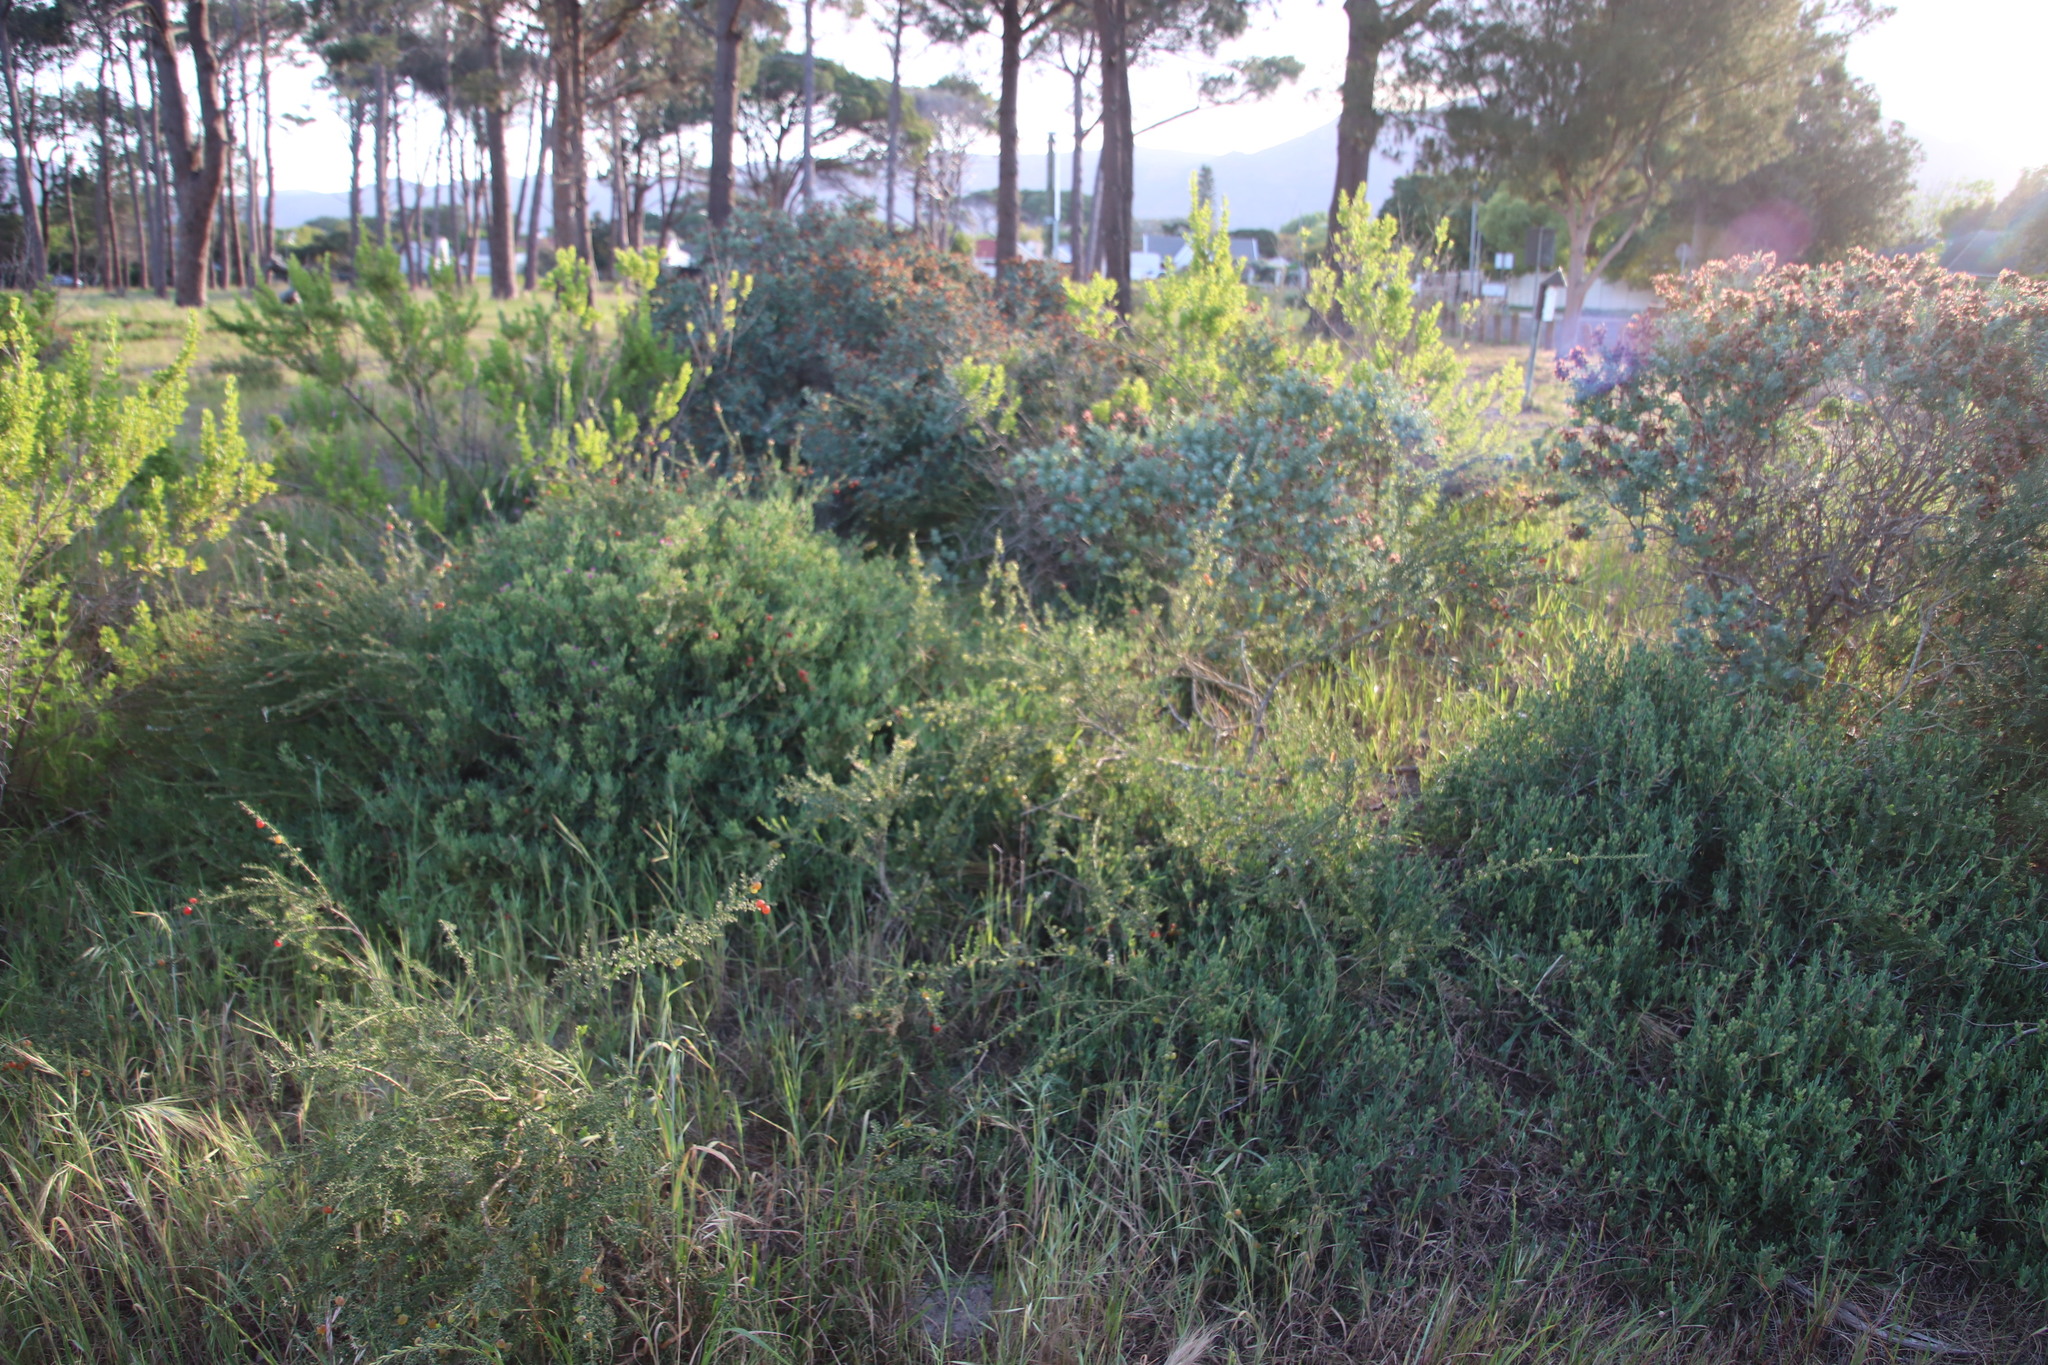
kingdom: Plantae
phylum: Tracheophyta
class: Magnoliopsida
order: Fabales
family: Polygalaceae
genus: Muraltia
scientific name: Muraltia spinosa
